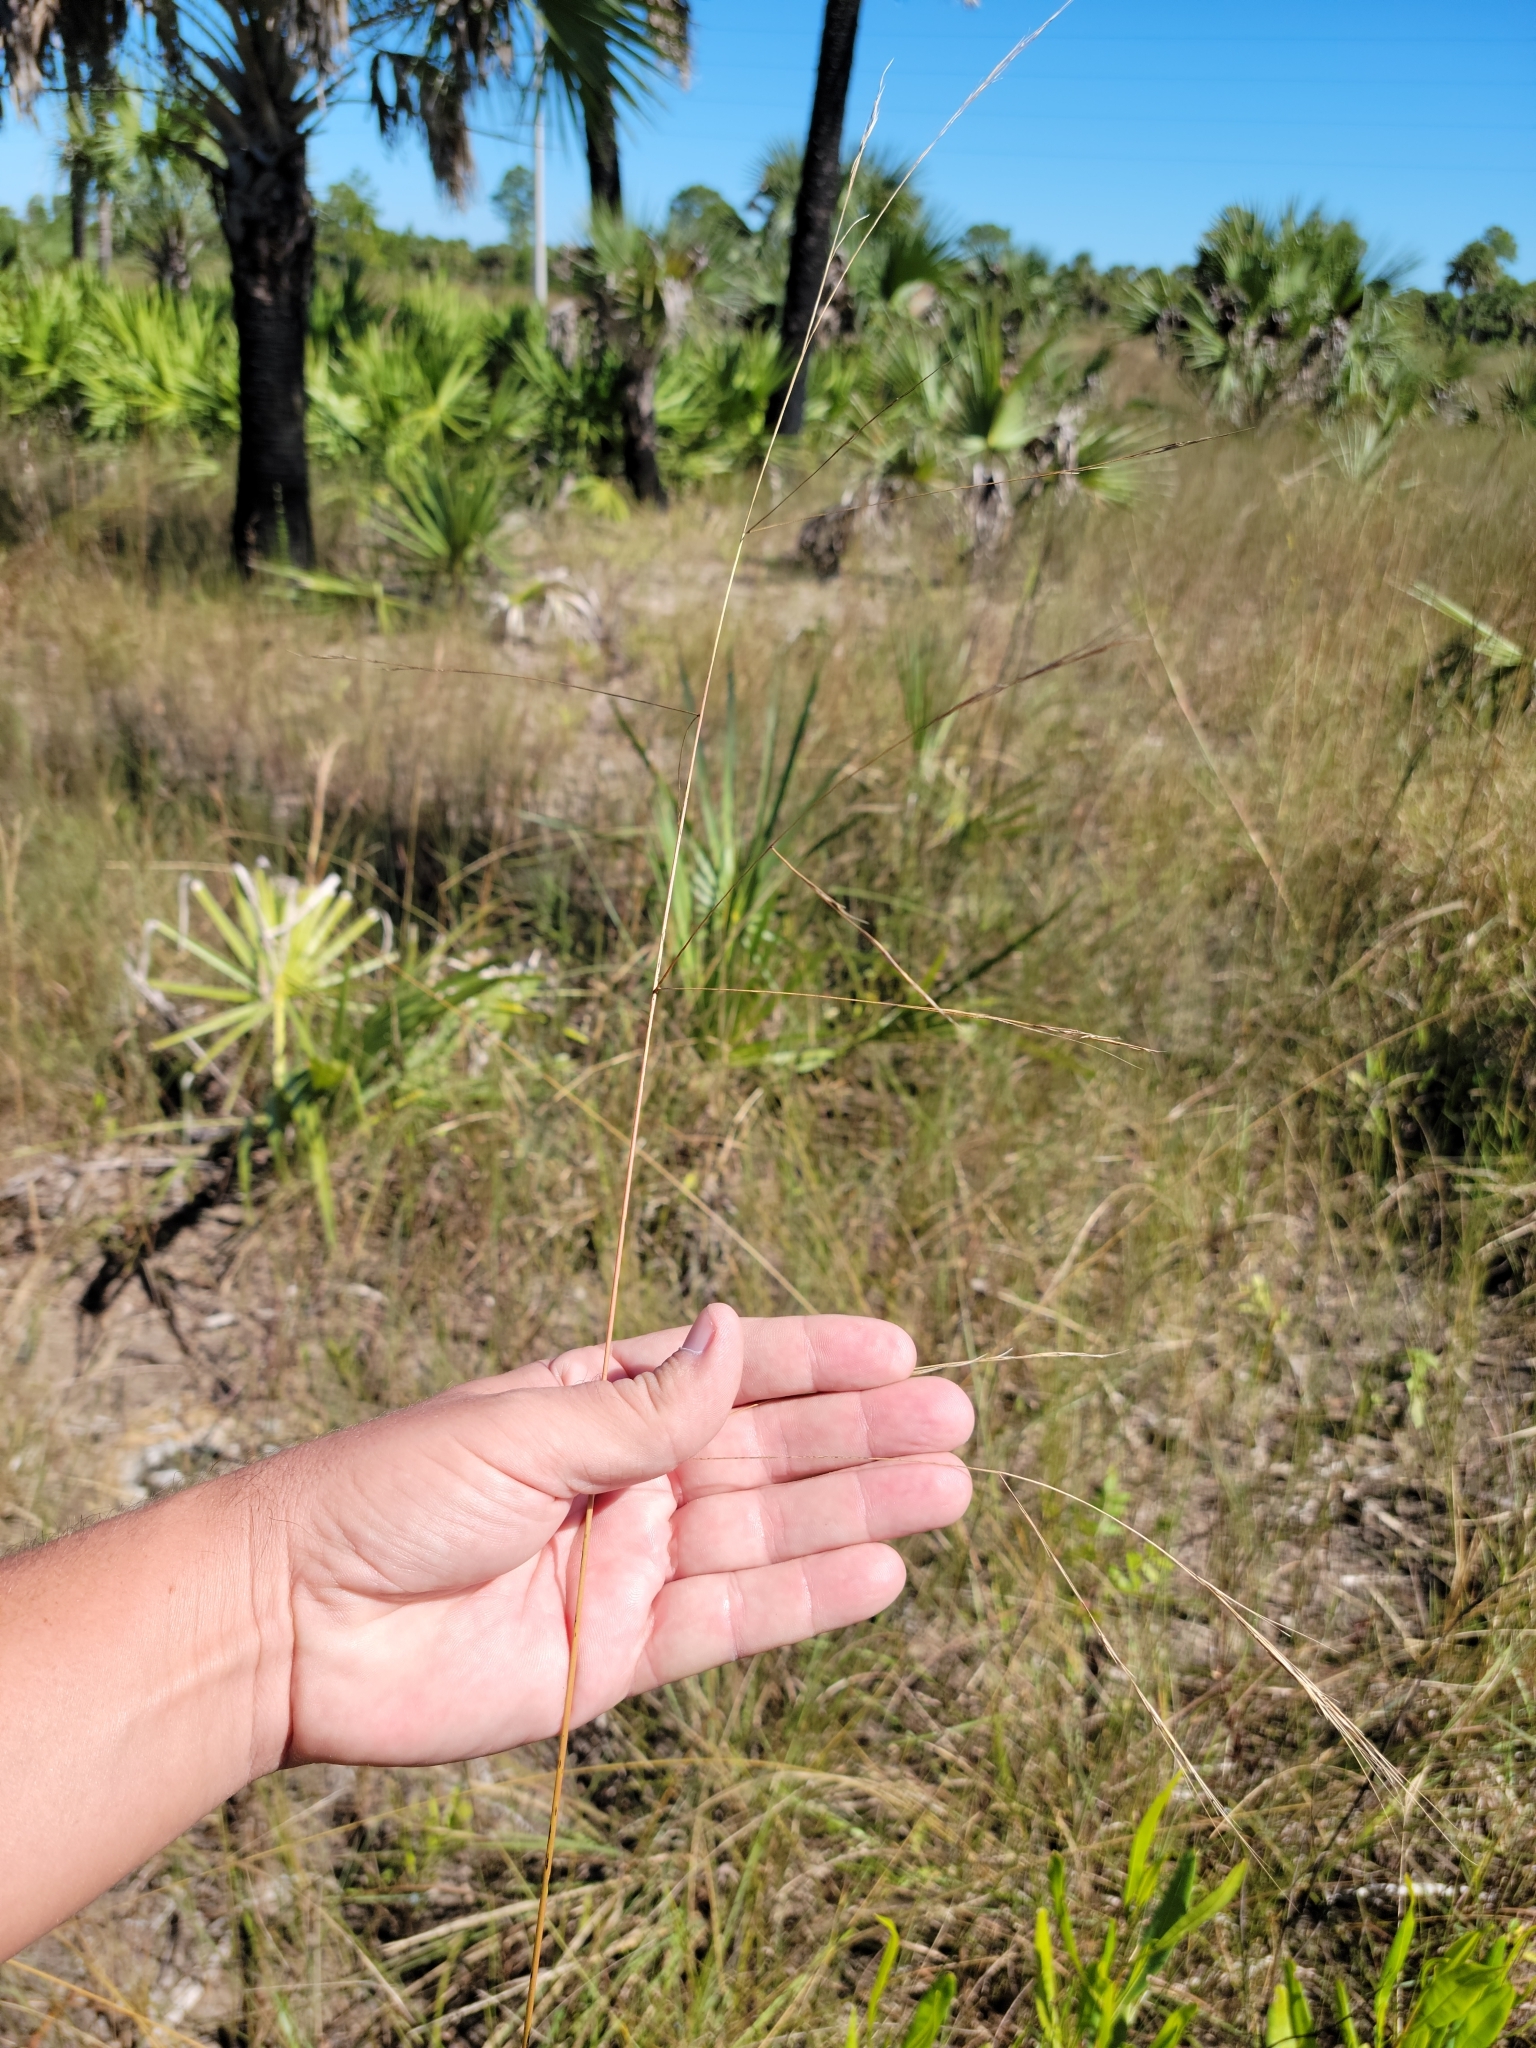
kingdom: Plantae
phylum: Tracheophyta
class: Liliopsida
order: Poales
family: Poaceae
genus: Aristida
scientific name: Aristida patula
